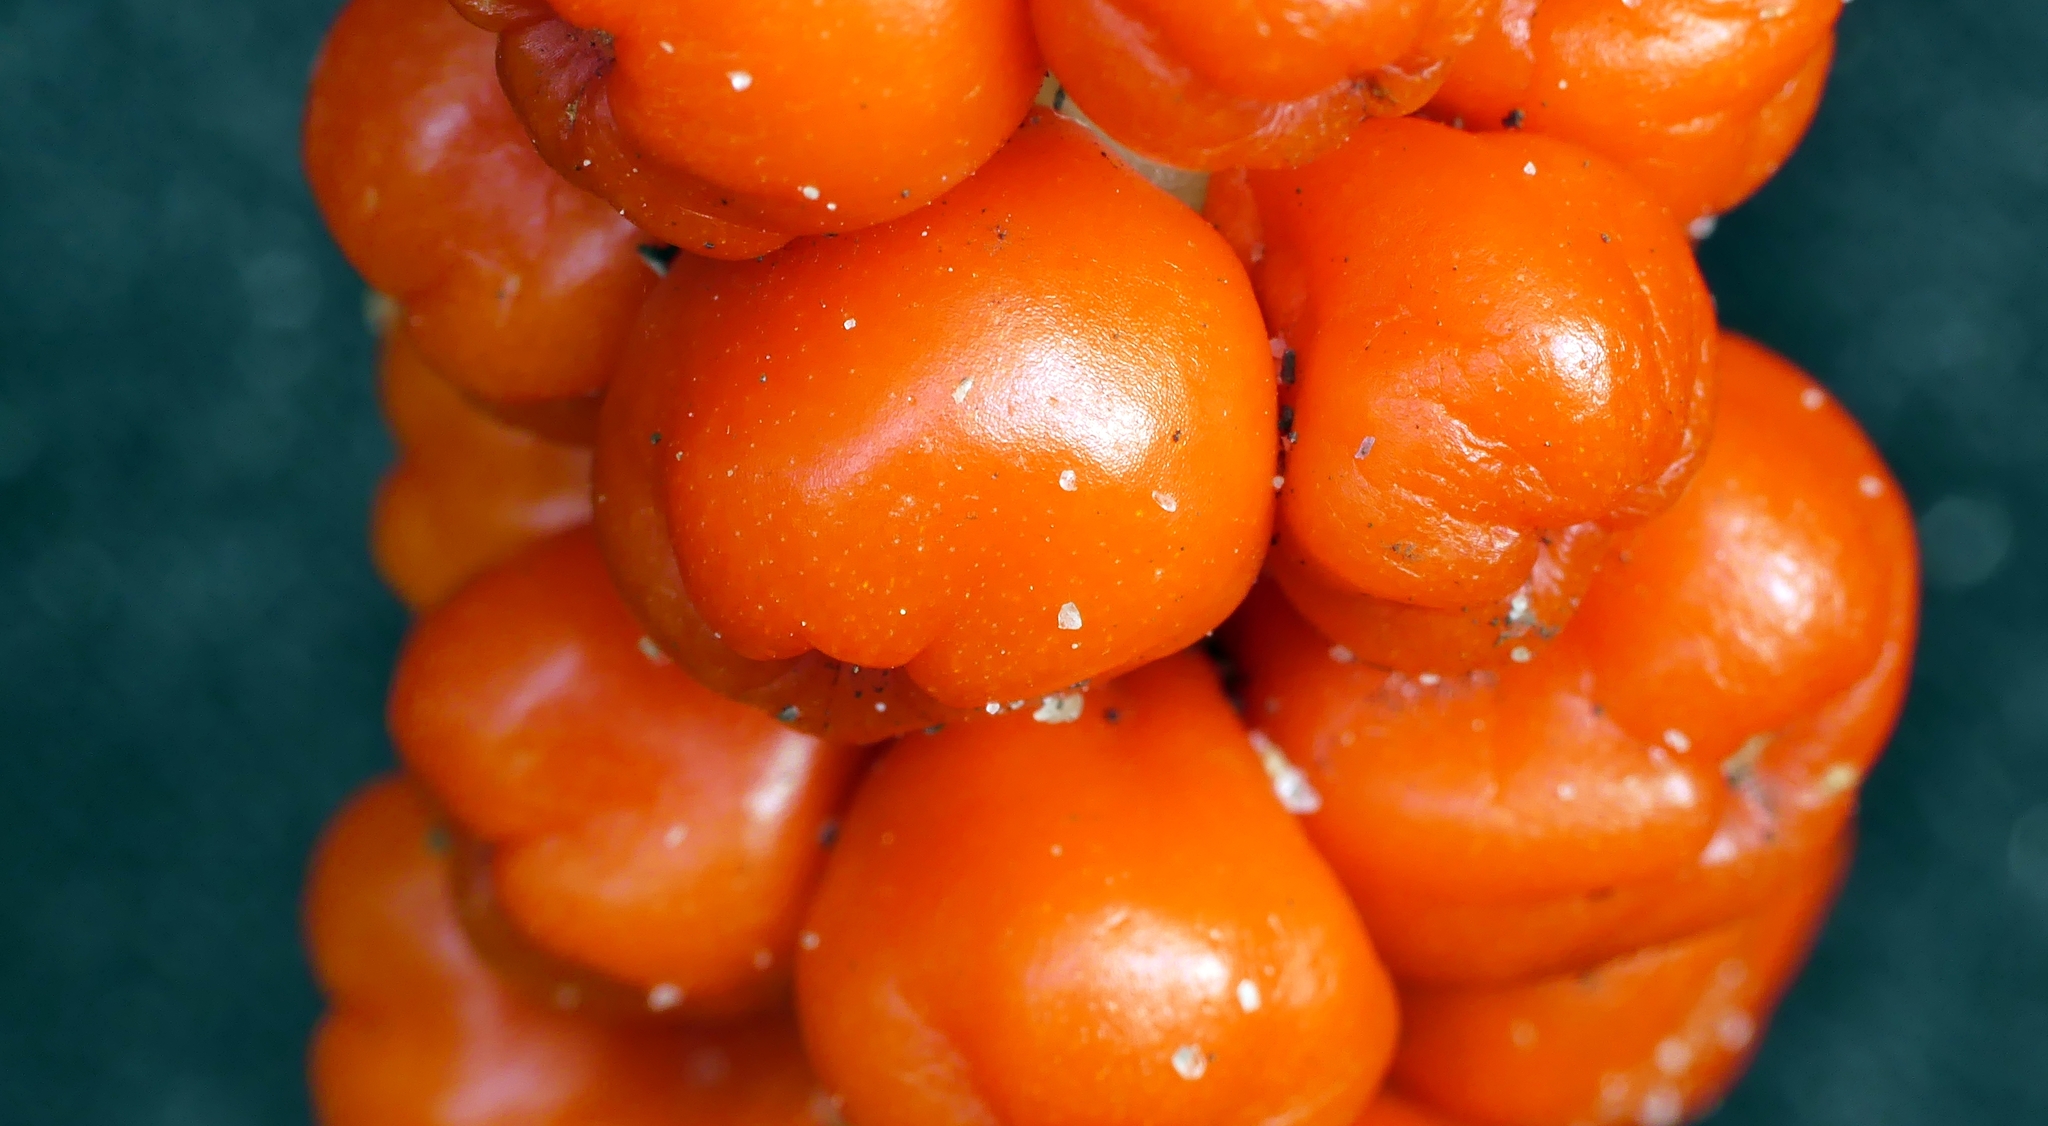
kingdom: Plantae
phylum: Tracheophyta
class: Liliopsida
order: Alismatales
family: Araceae
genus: Arum
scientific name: Arum maculatum
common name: Lords-and-ladies
